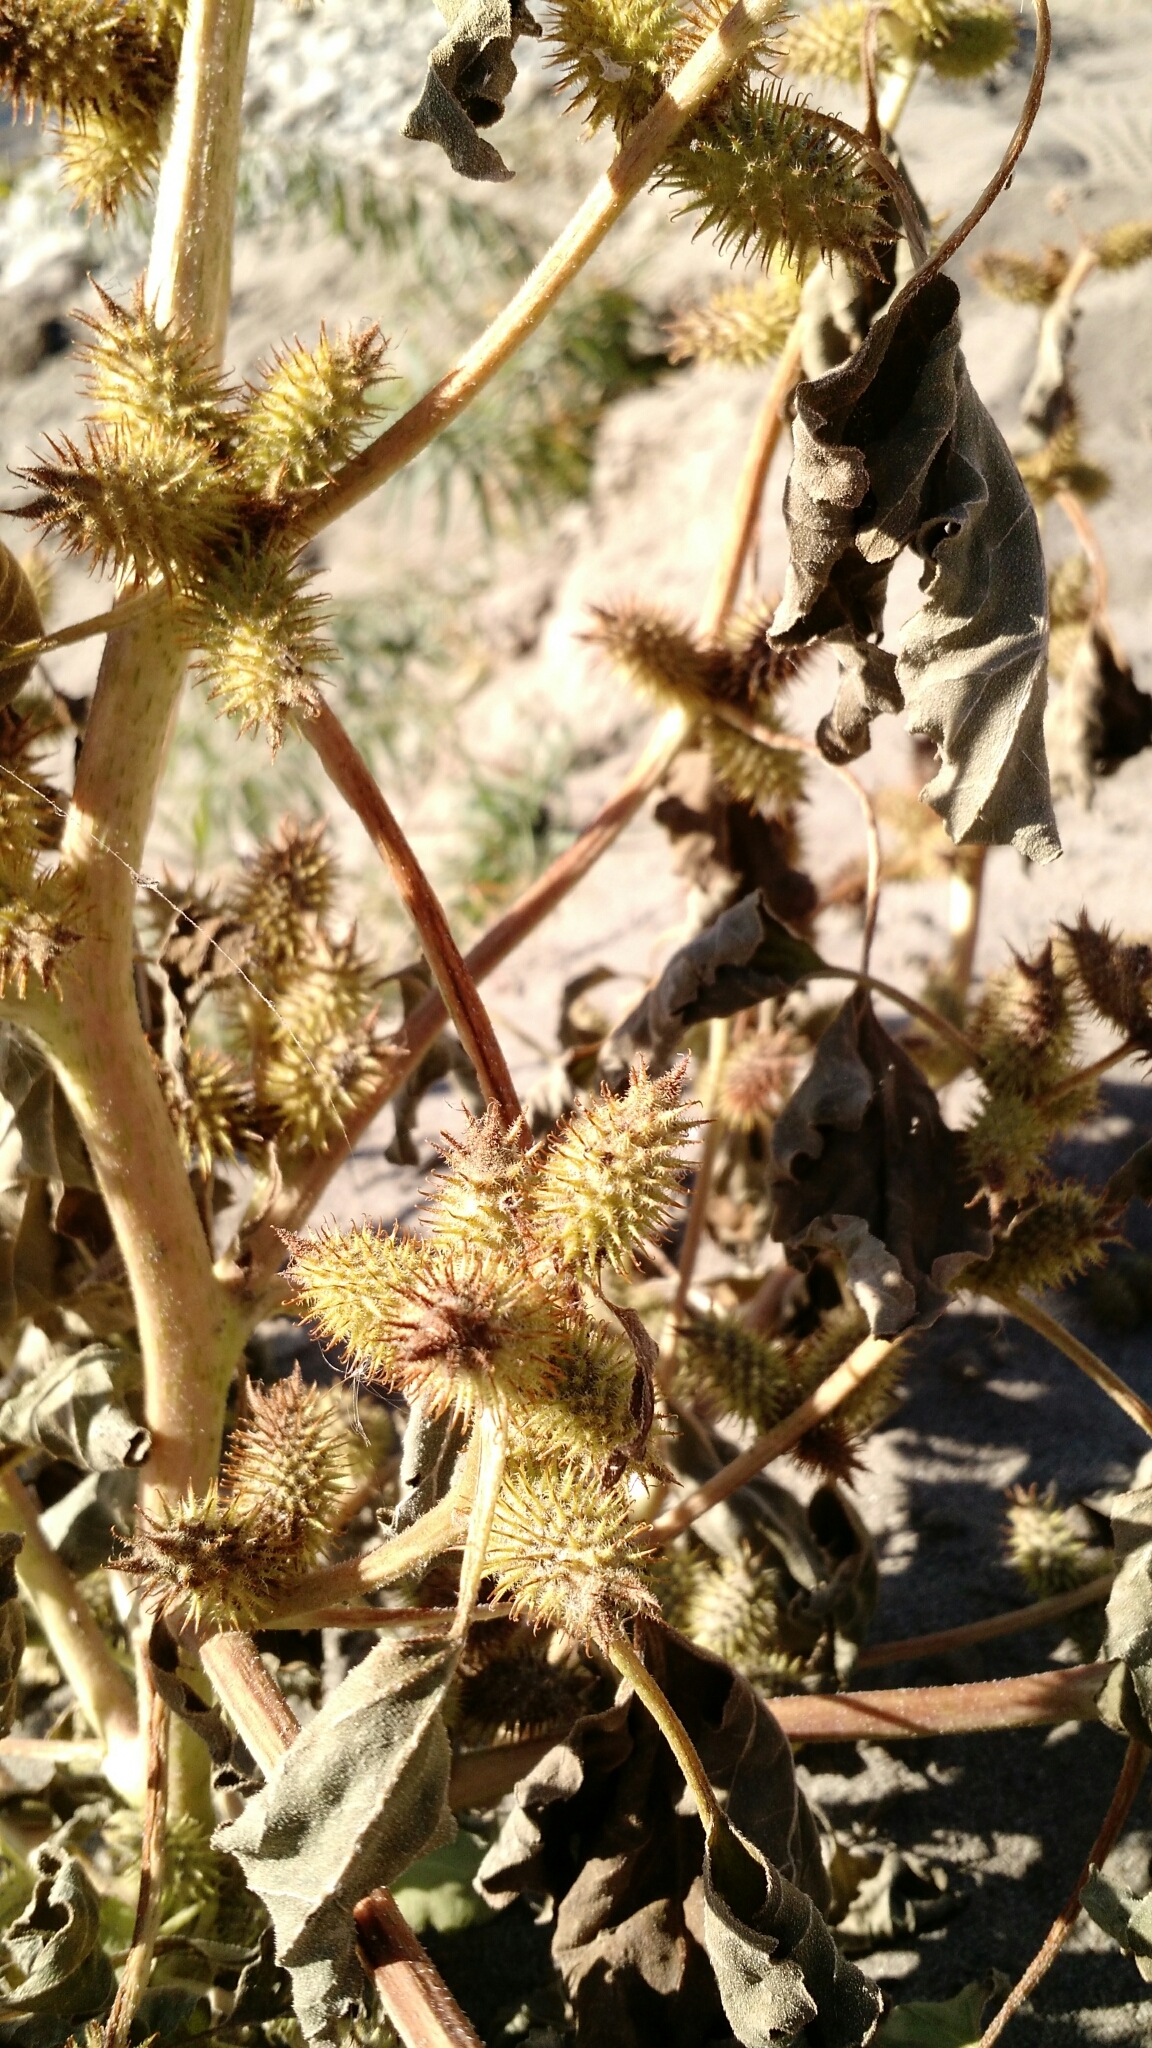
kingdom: Plantae
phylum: Tracheophyta
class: Magnoliopsida
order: Asterales
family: Asteraceae
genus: Xanthium
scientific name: Xanthium strumarium
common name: Rough cocklebur
